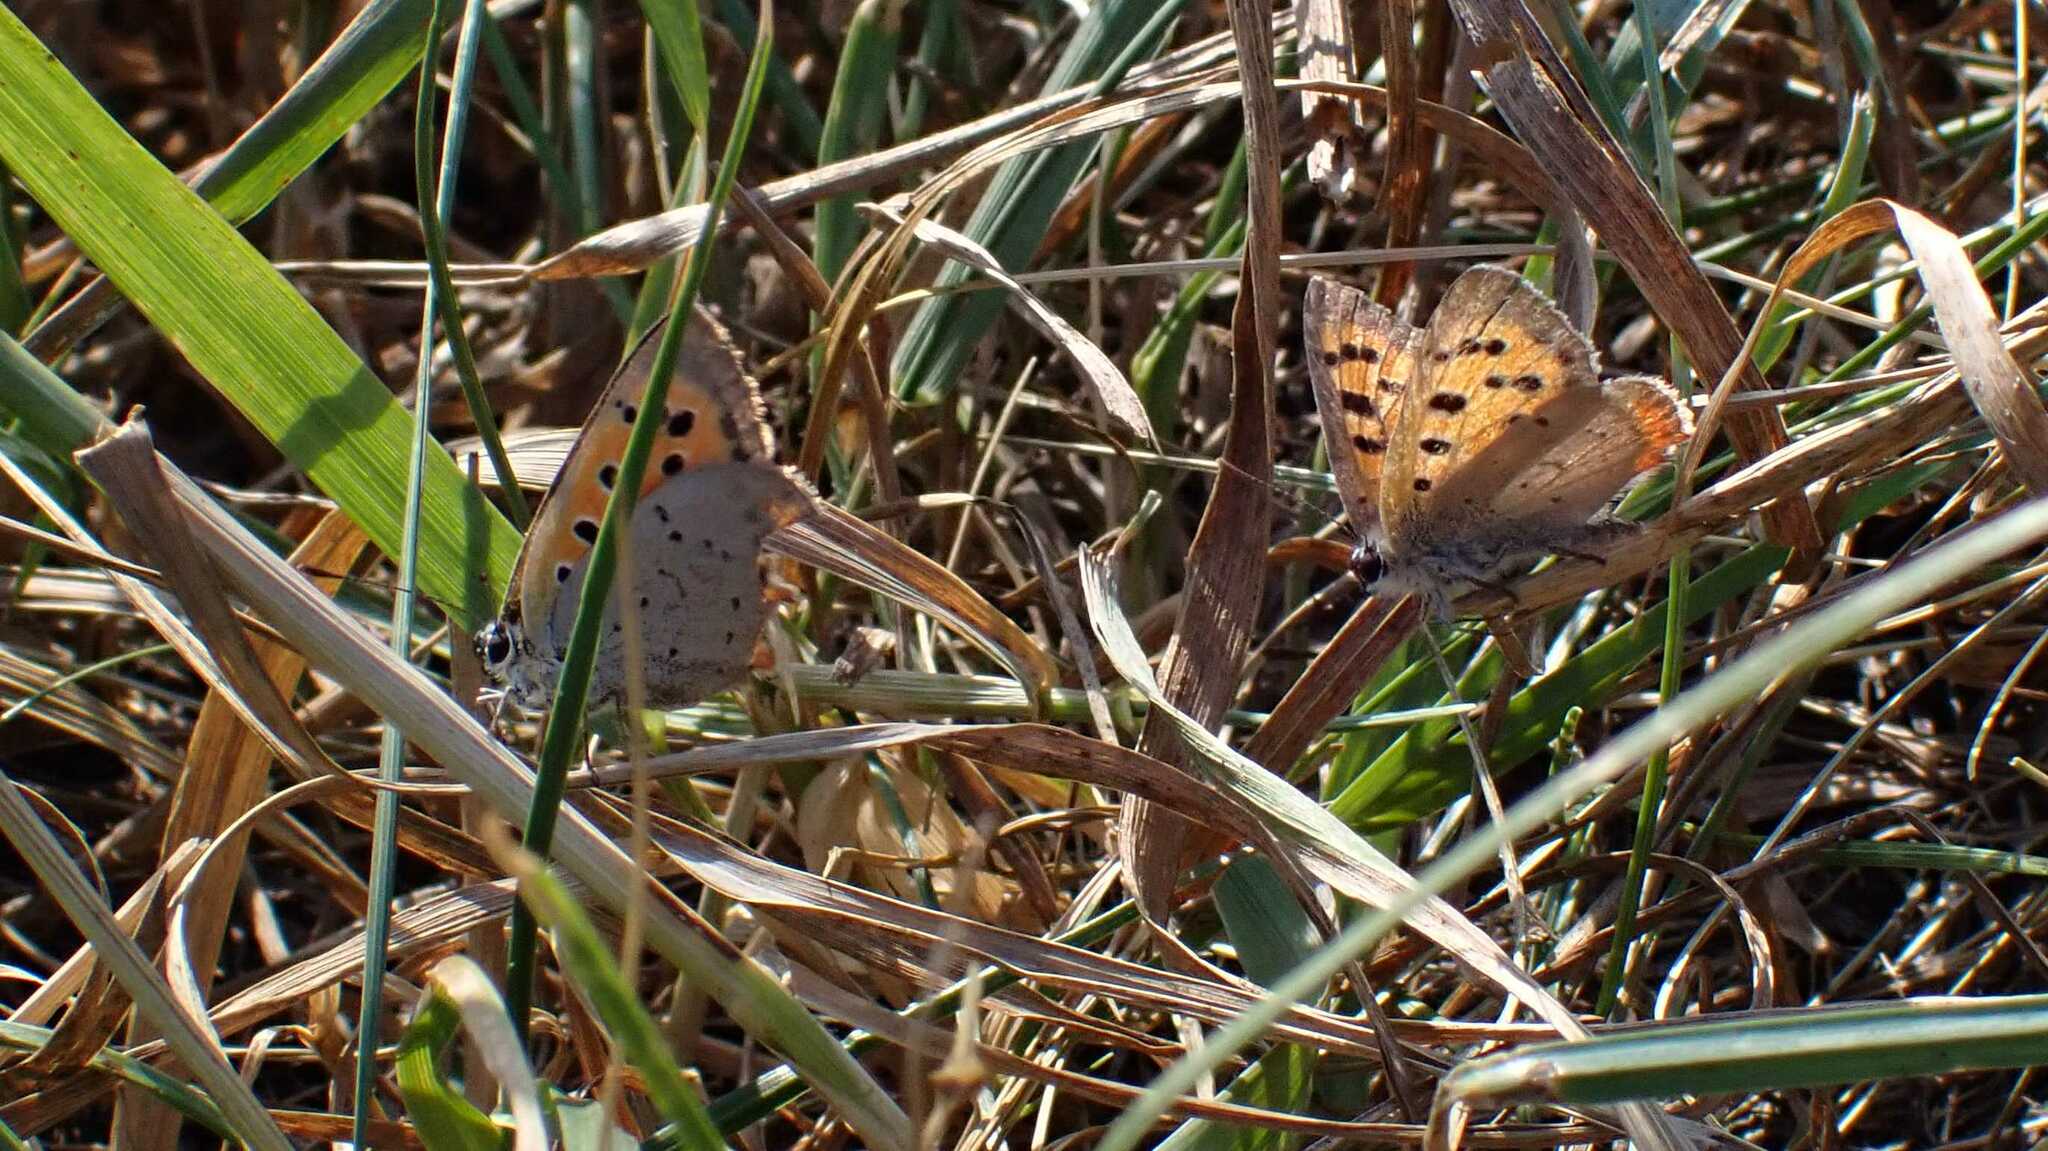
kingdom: Animalia
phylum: Arthropoda
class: Insecta
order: Lepidoptera
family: Lycaenidae
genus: Lycaena
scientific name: Lycaena phlaeas
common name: Small copper
